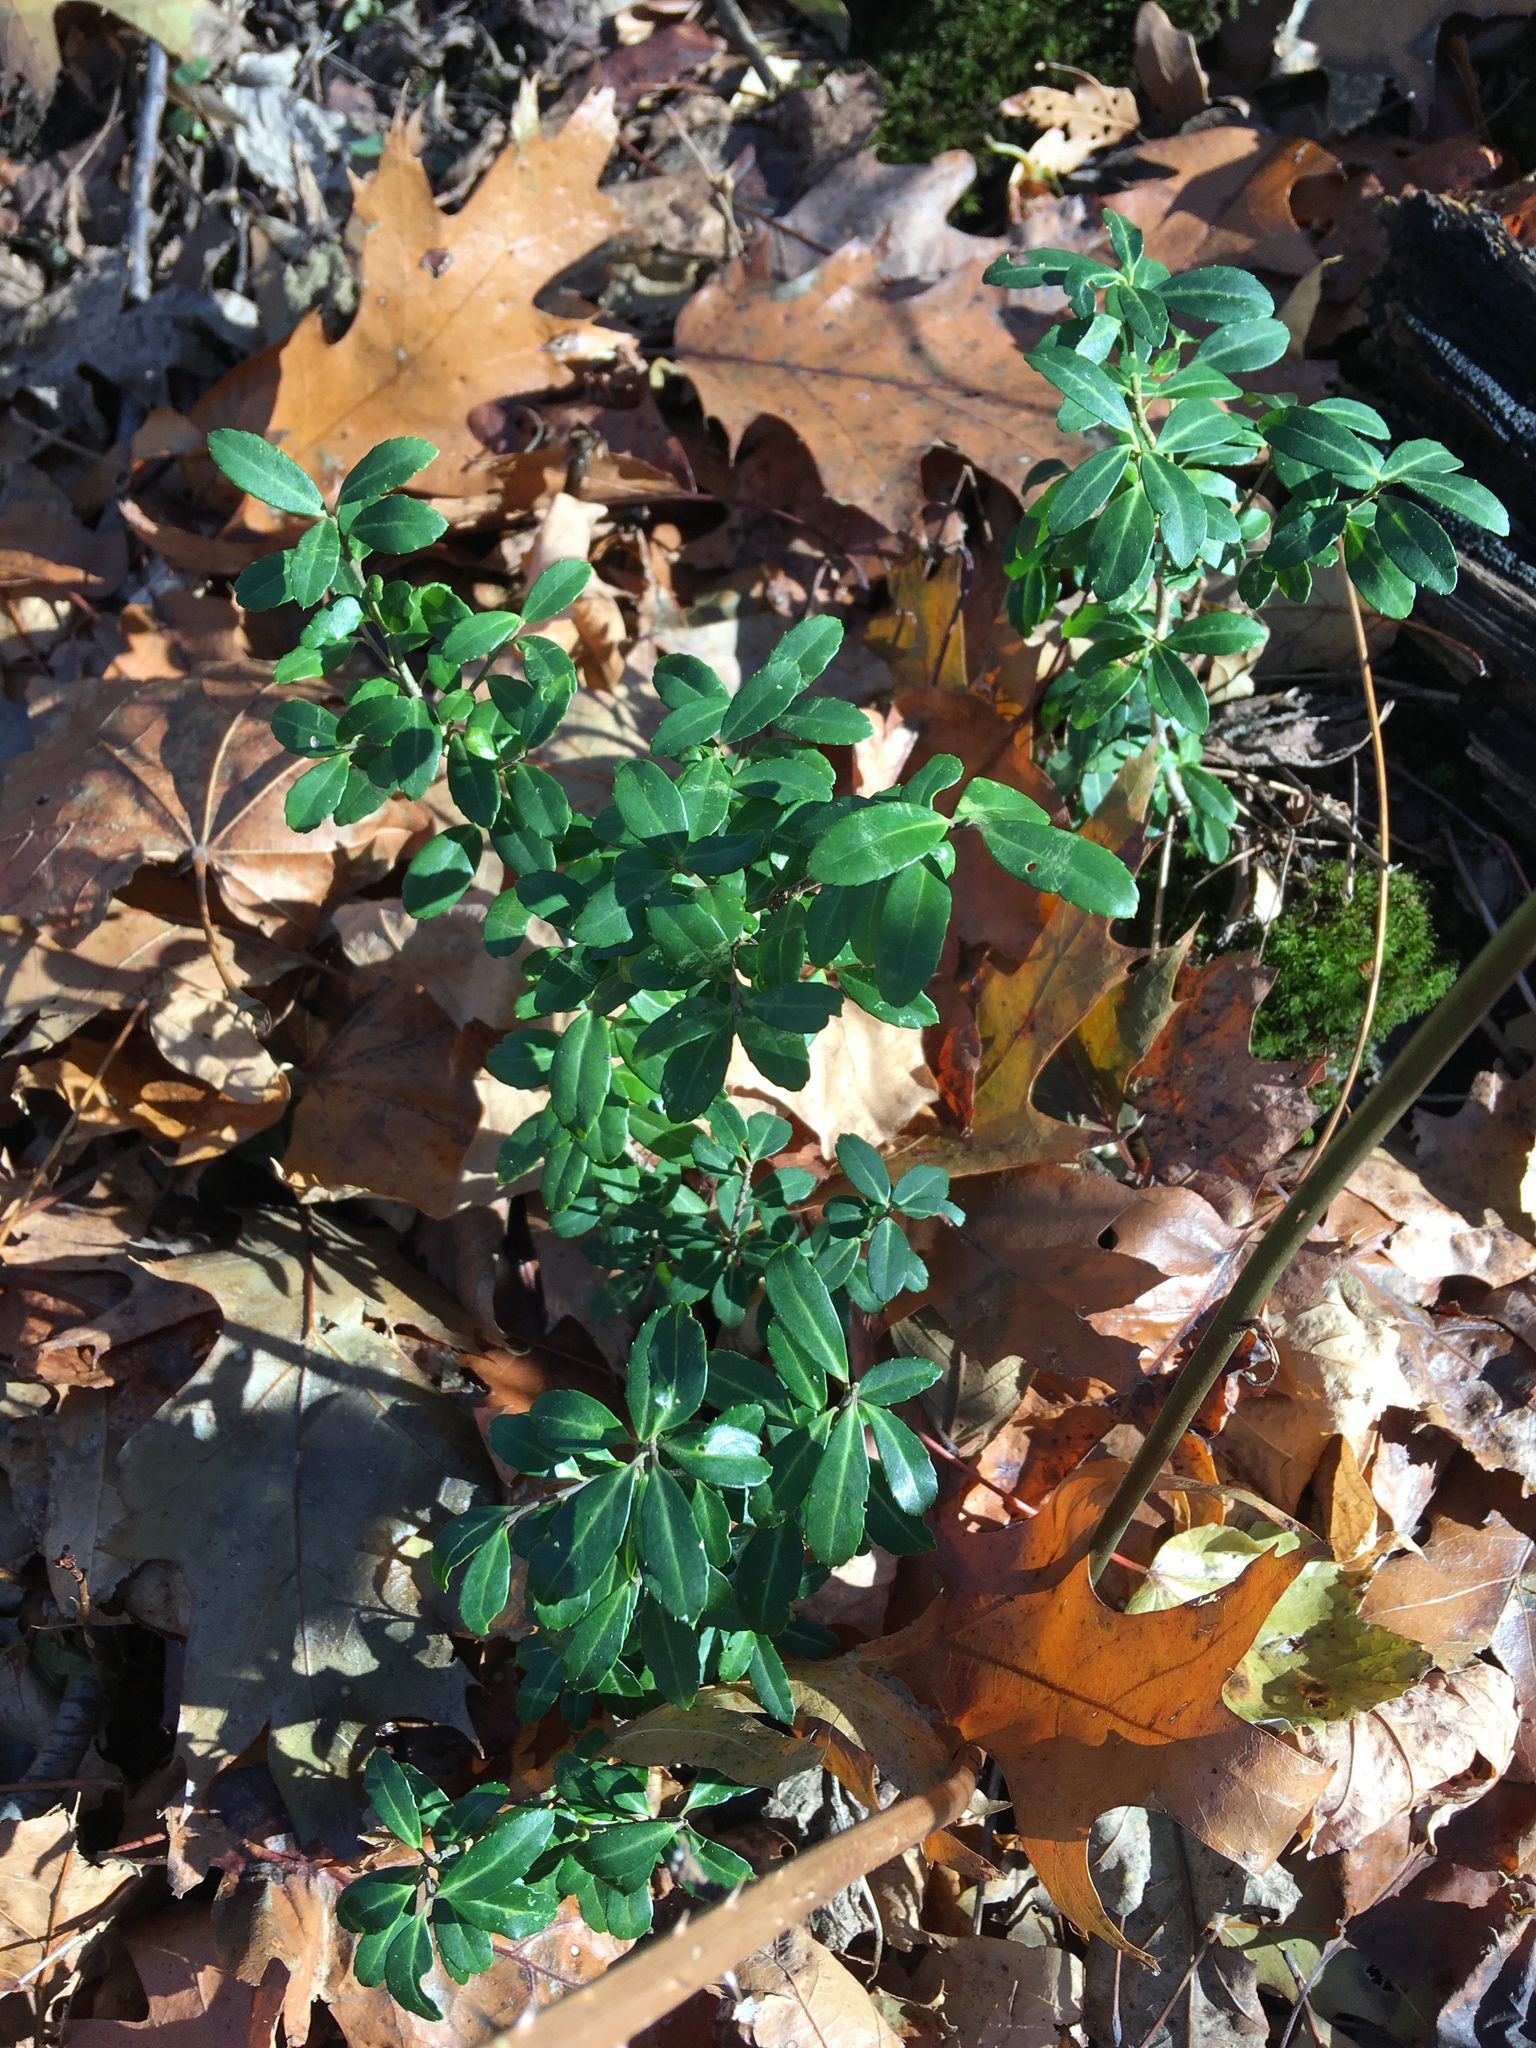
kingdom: Plantae
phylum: Tracheophyta
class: Magnoliopsida
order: Aquifoliales
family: Aquifoliaceae
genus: Ilex
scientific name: Ilex crenata
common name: Japanese holly
